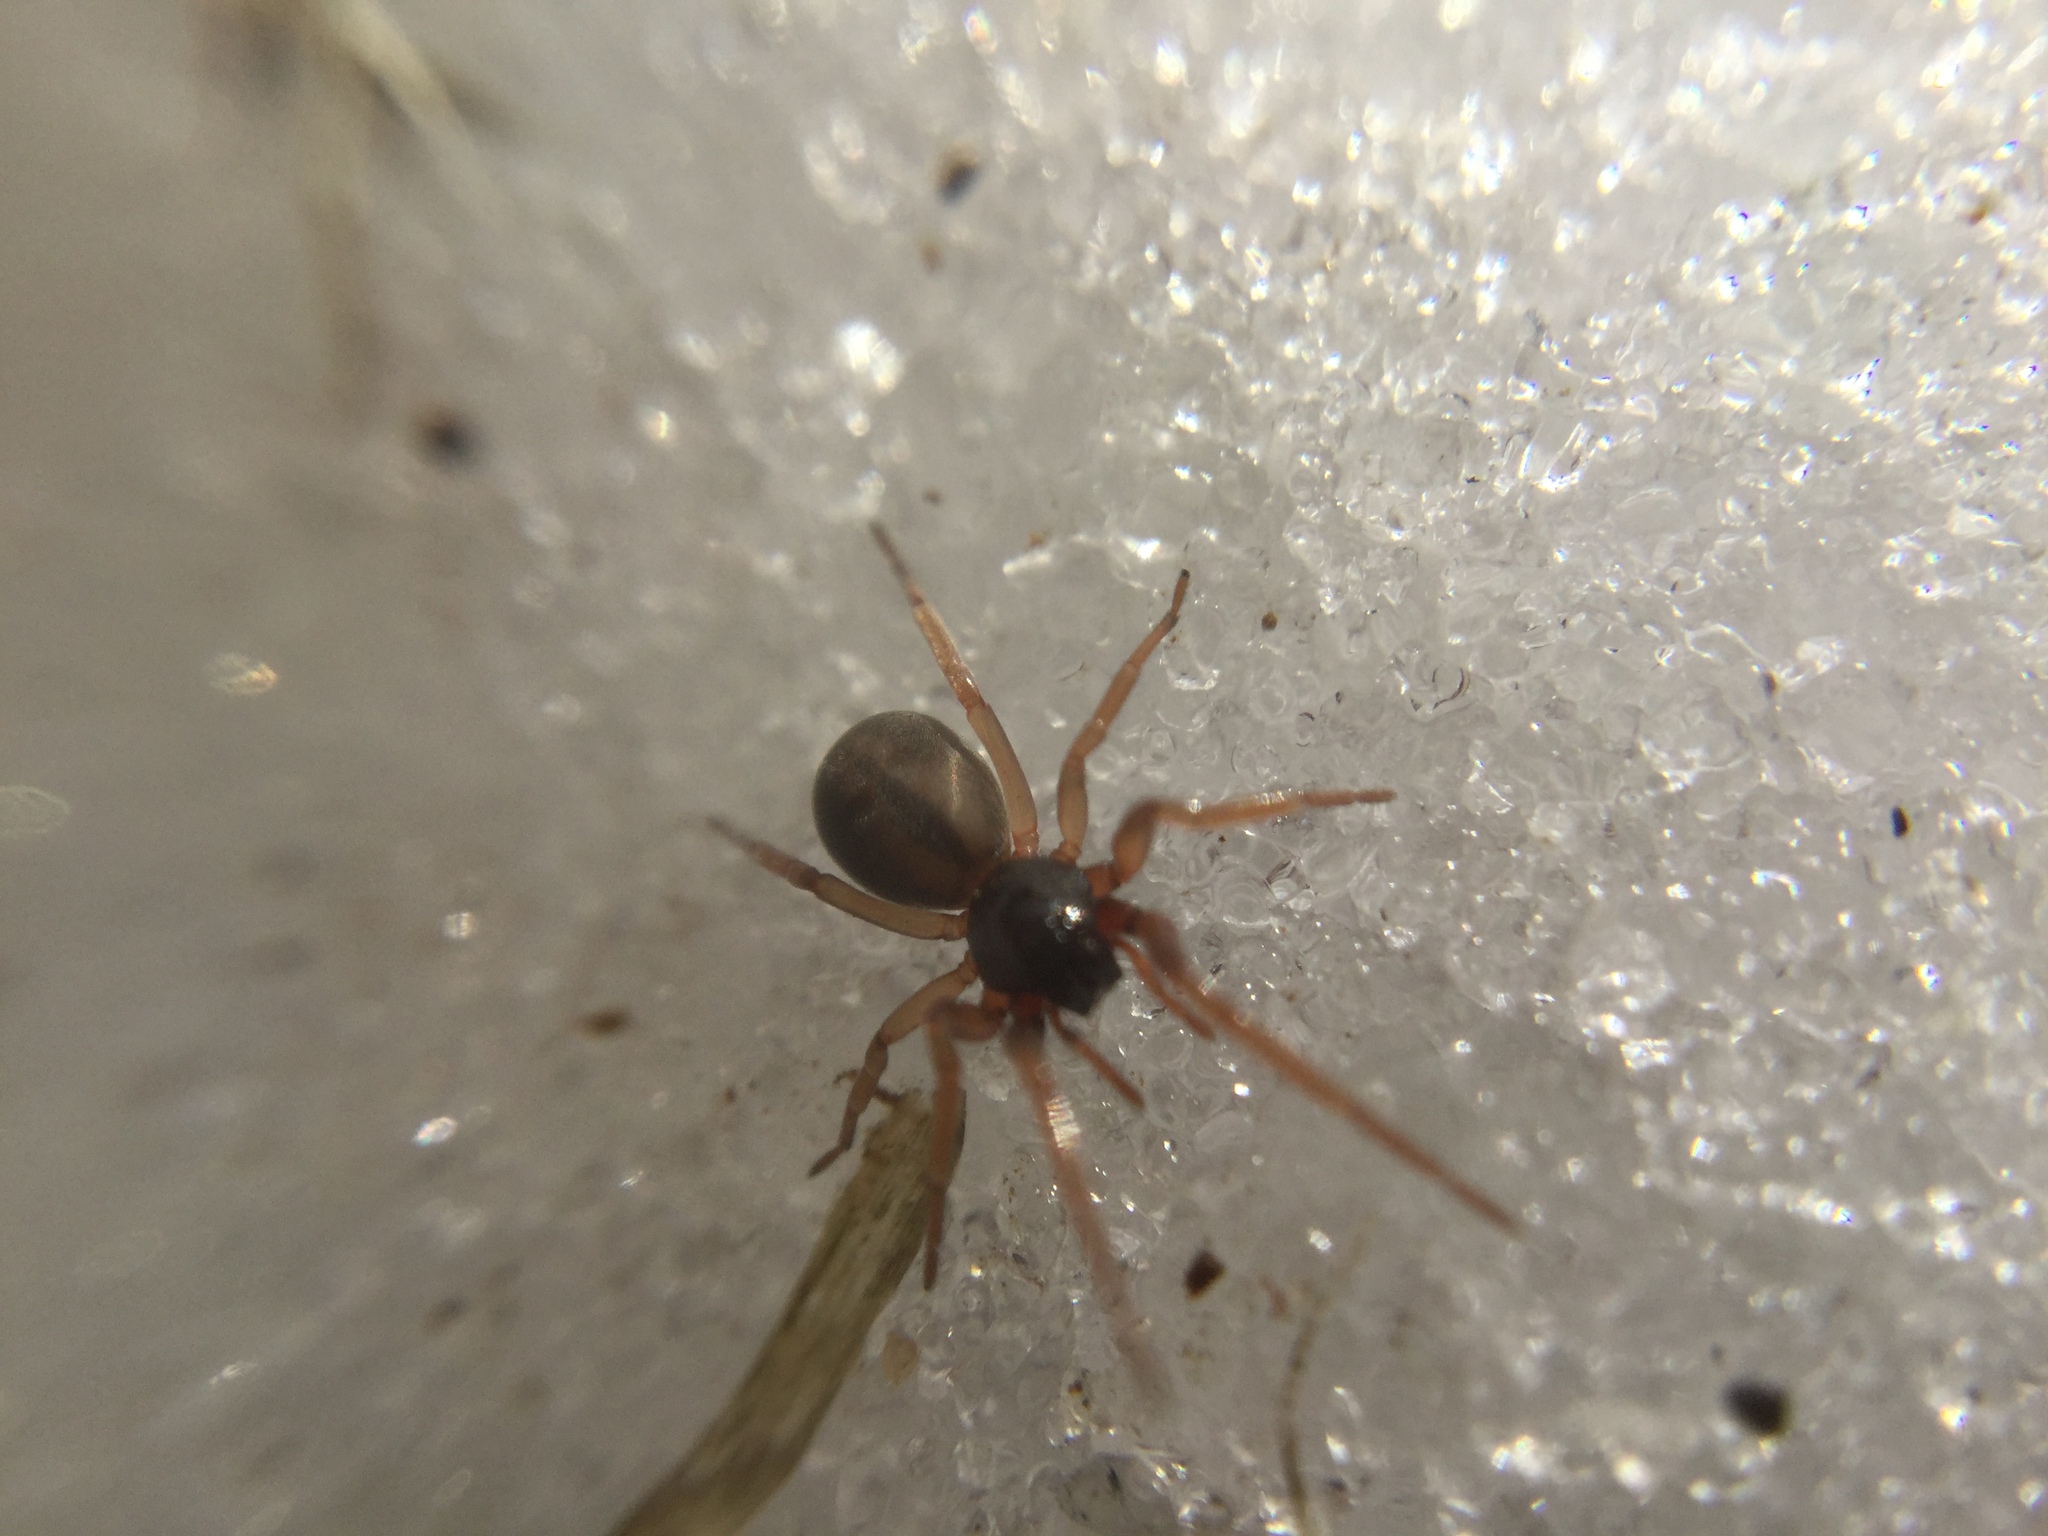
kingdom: Animalia
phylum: Arthropoda
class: Arachnida
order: Araneae
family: Trachelidae
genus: Meriola
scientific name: Meriola decepta
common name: Corinnid sac spiders
